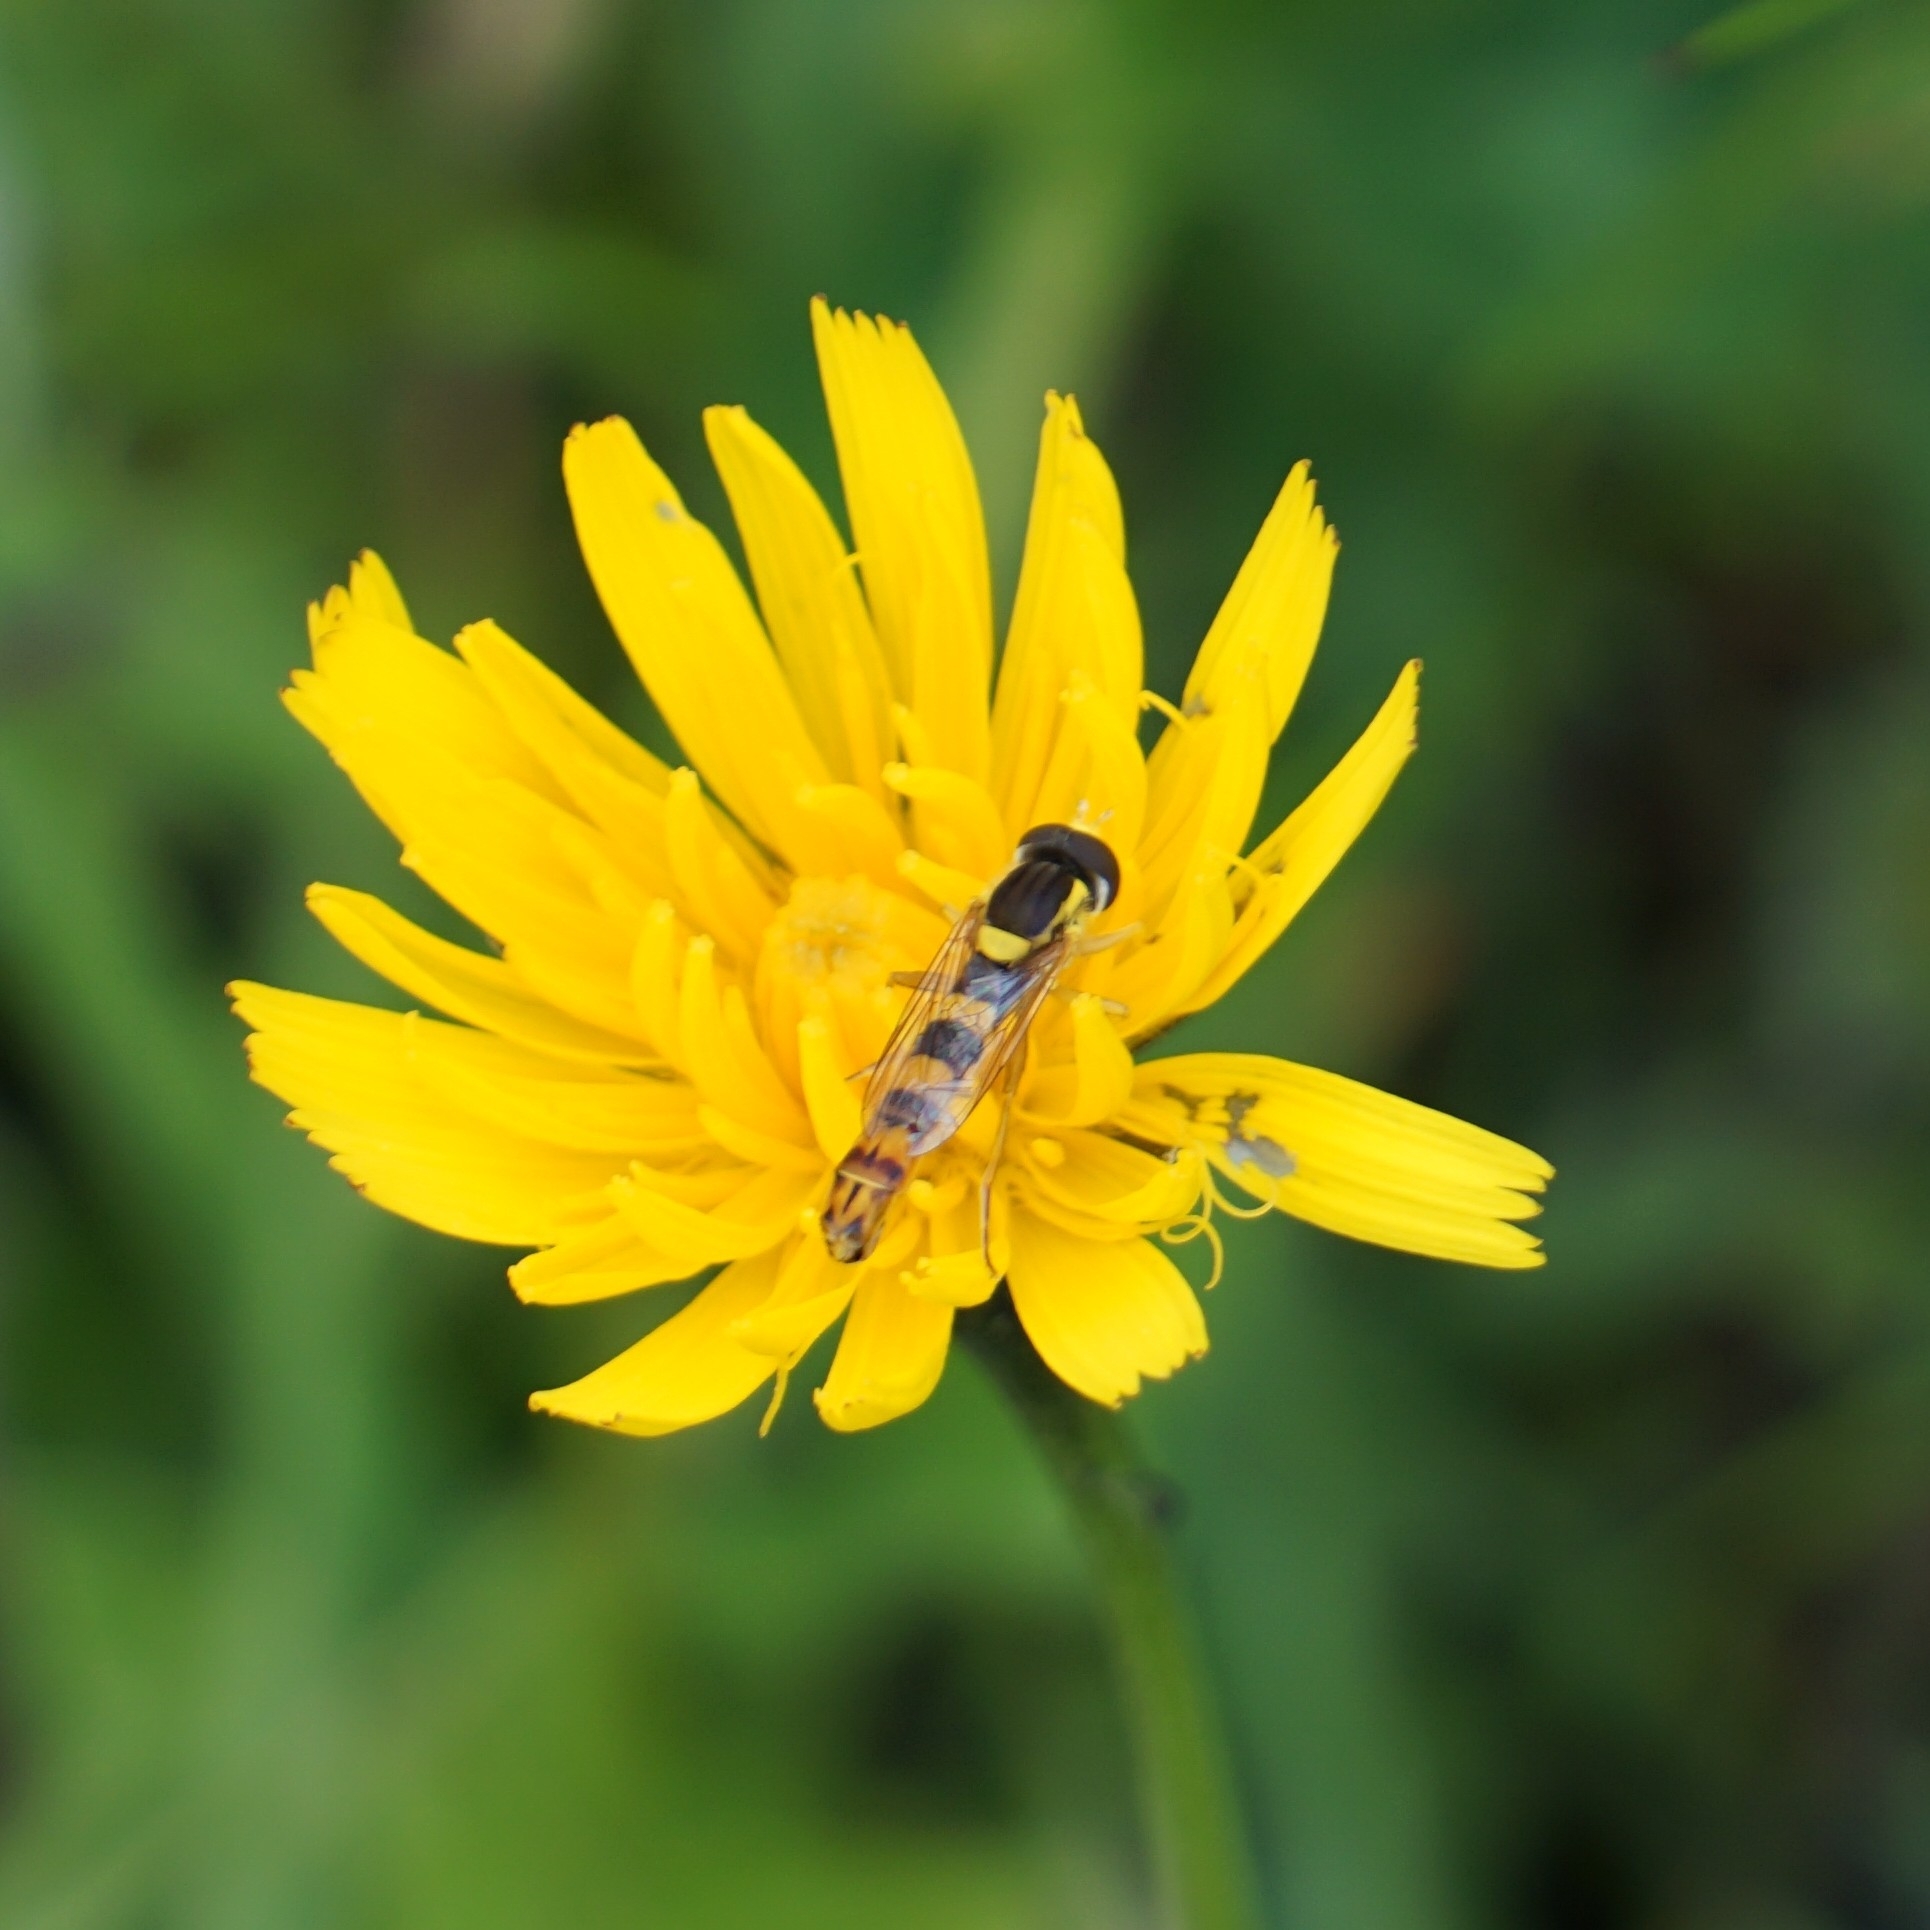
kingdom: Animalia
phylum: Arthropoda
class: Insecta
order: Diptera
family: Syrphidae
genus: Sphaerophoria
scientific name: Sphaerophoria scripta
